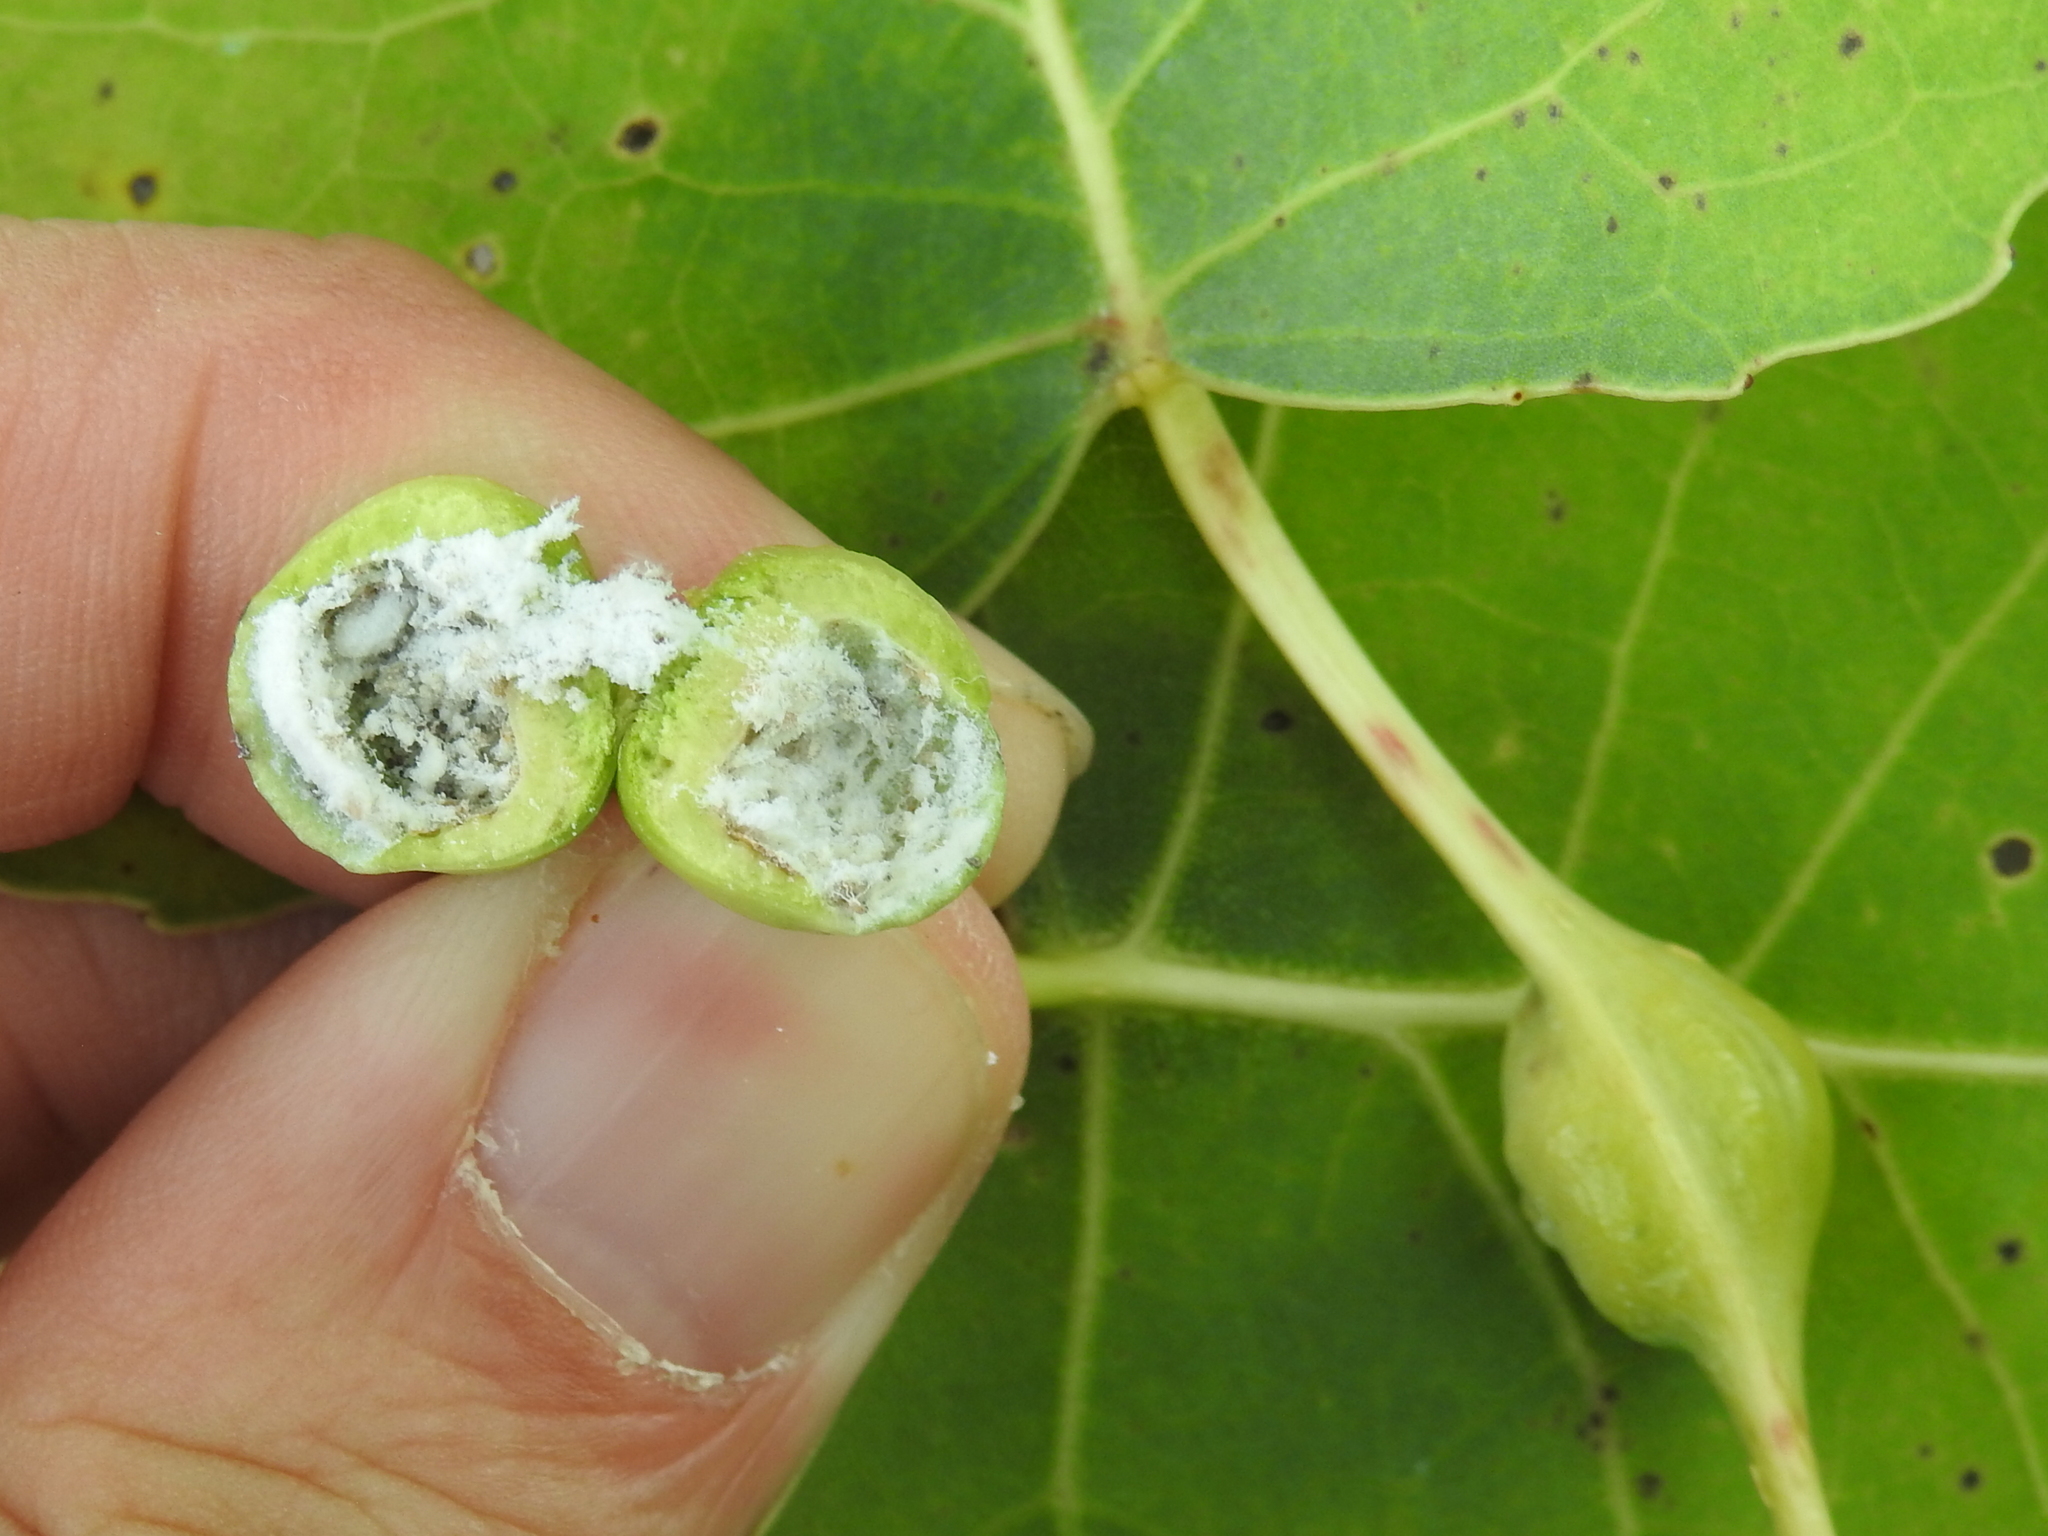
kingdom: Animalia
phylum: Arthropoda
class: Insecta
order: Hemiptera
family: Aphididae
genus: Pemphigus
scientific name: Pemphigus populitransversus
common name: Poplar petiolegall aphid
